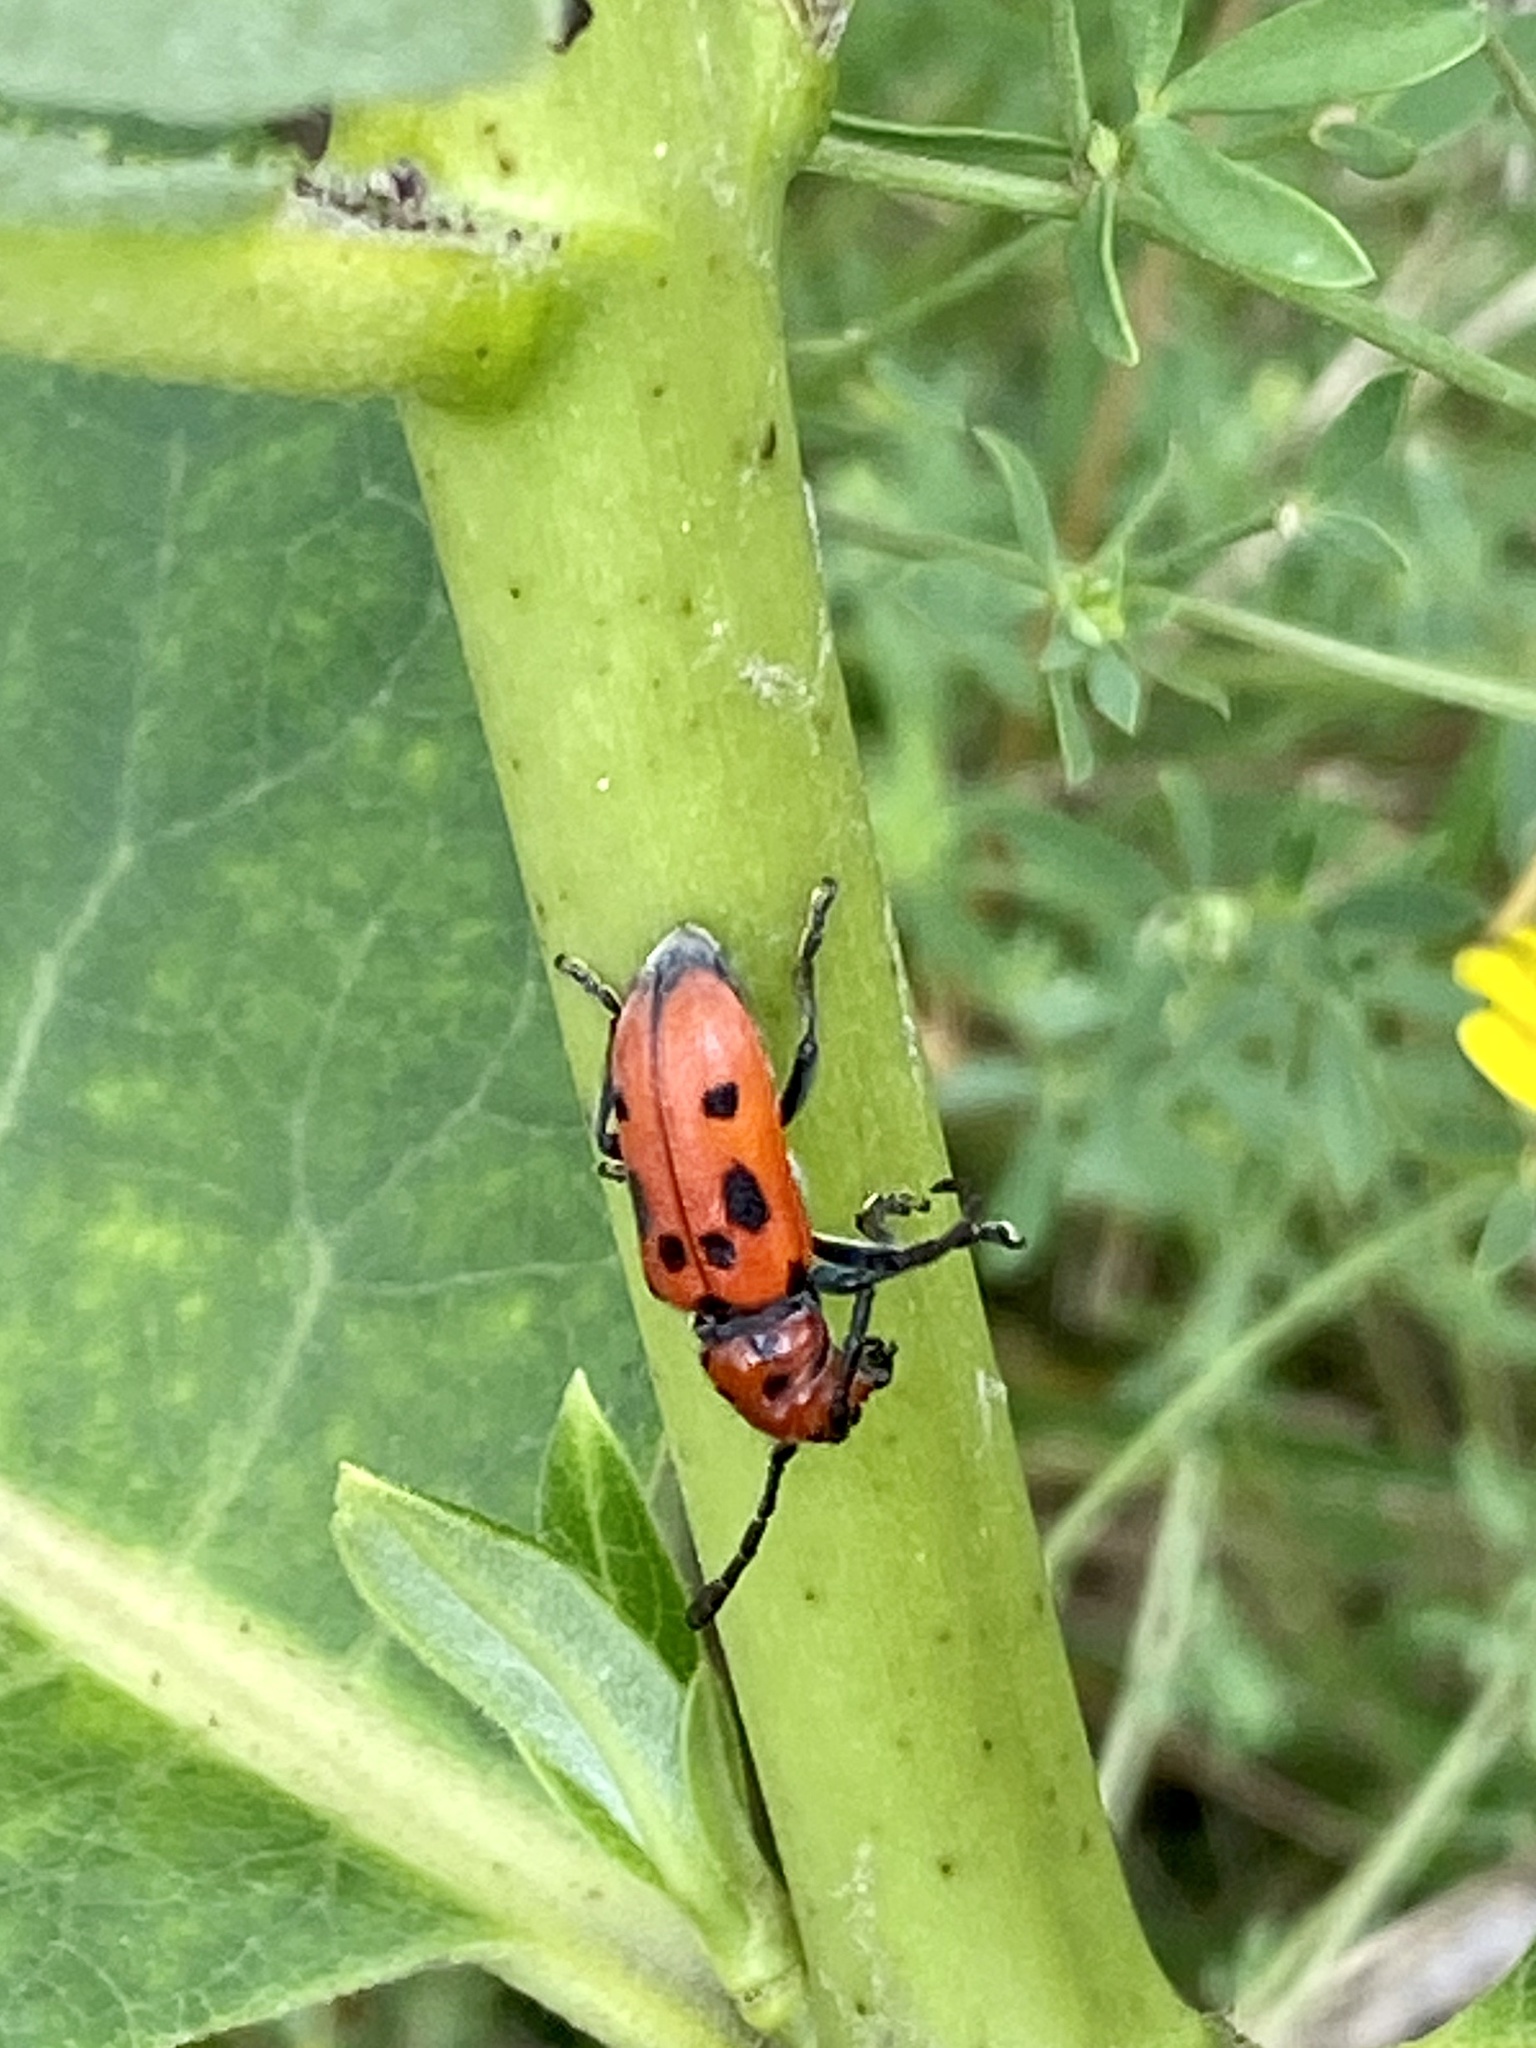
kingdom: Animalia
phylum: Arthropoda
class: Insecta
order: Coleoptera
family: Cerambycidae
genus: Tetraopes
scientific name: Tetraopes tetrophthalmus
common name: Red milkweed beetle
